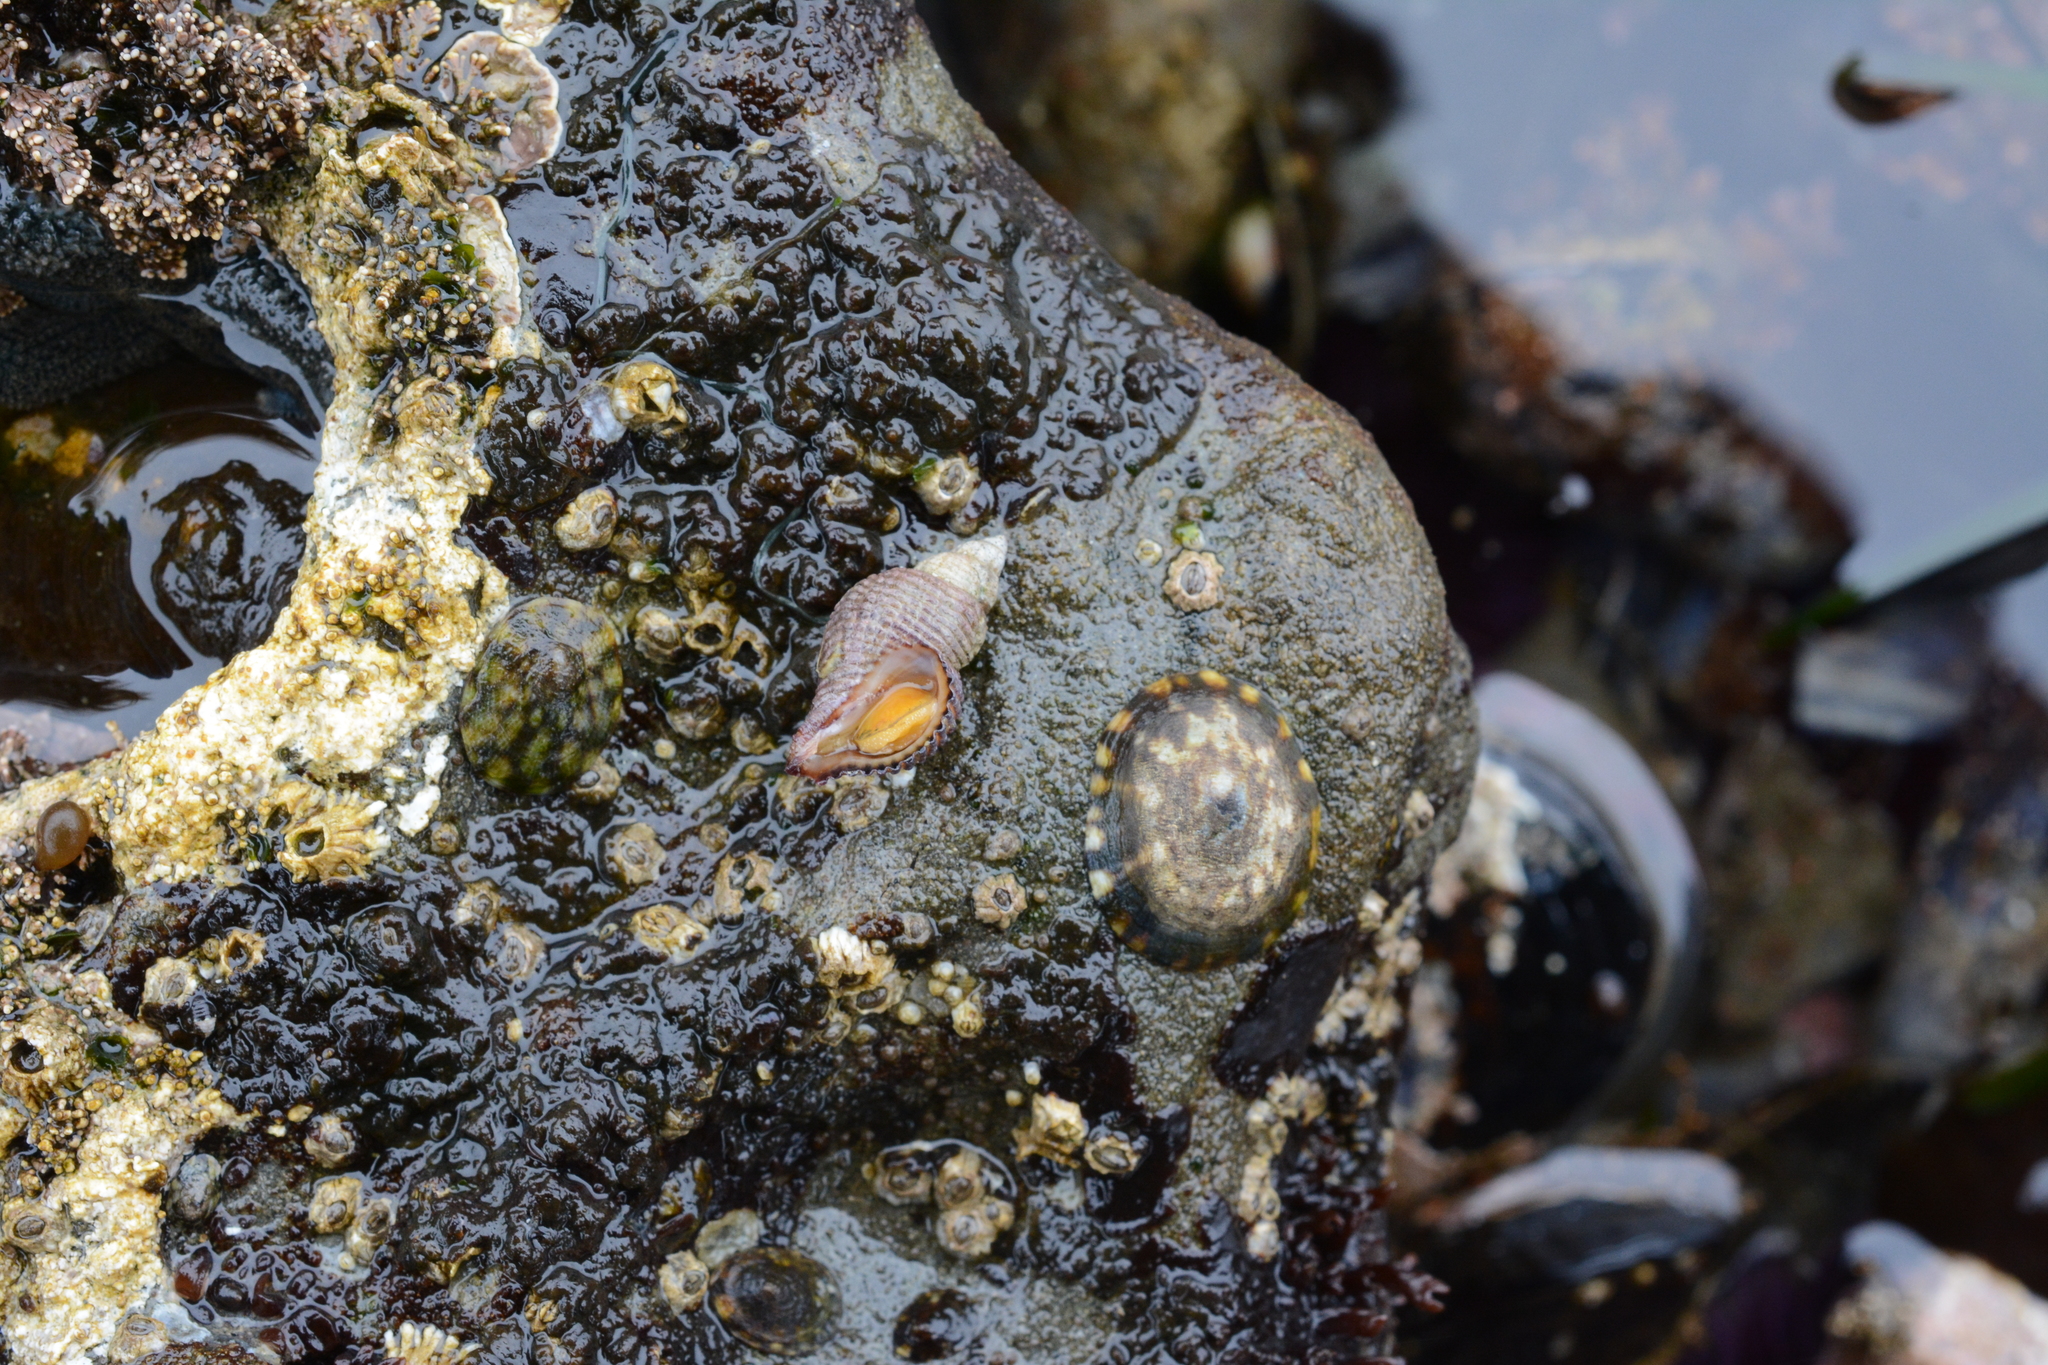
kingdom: Animalia
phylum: Mollusca
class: Gastropoda
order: Neogastropoda
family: Muricidae
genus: Paciocinebrina
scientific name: Paciocinebrina lurida
